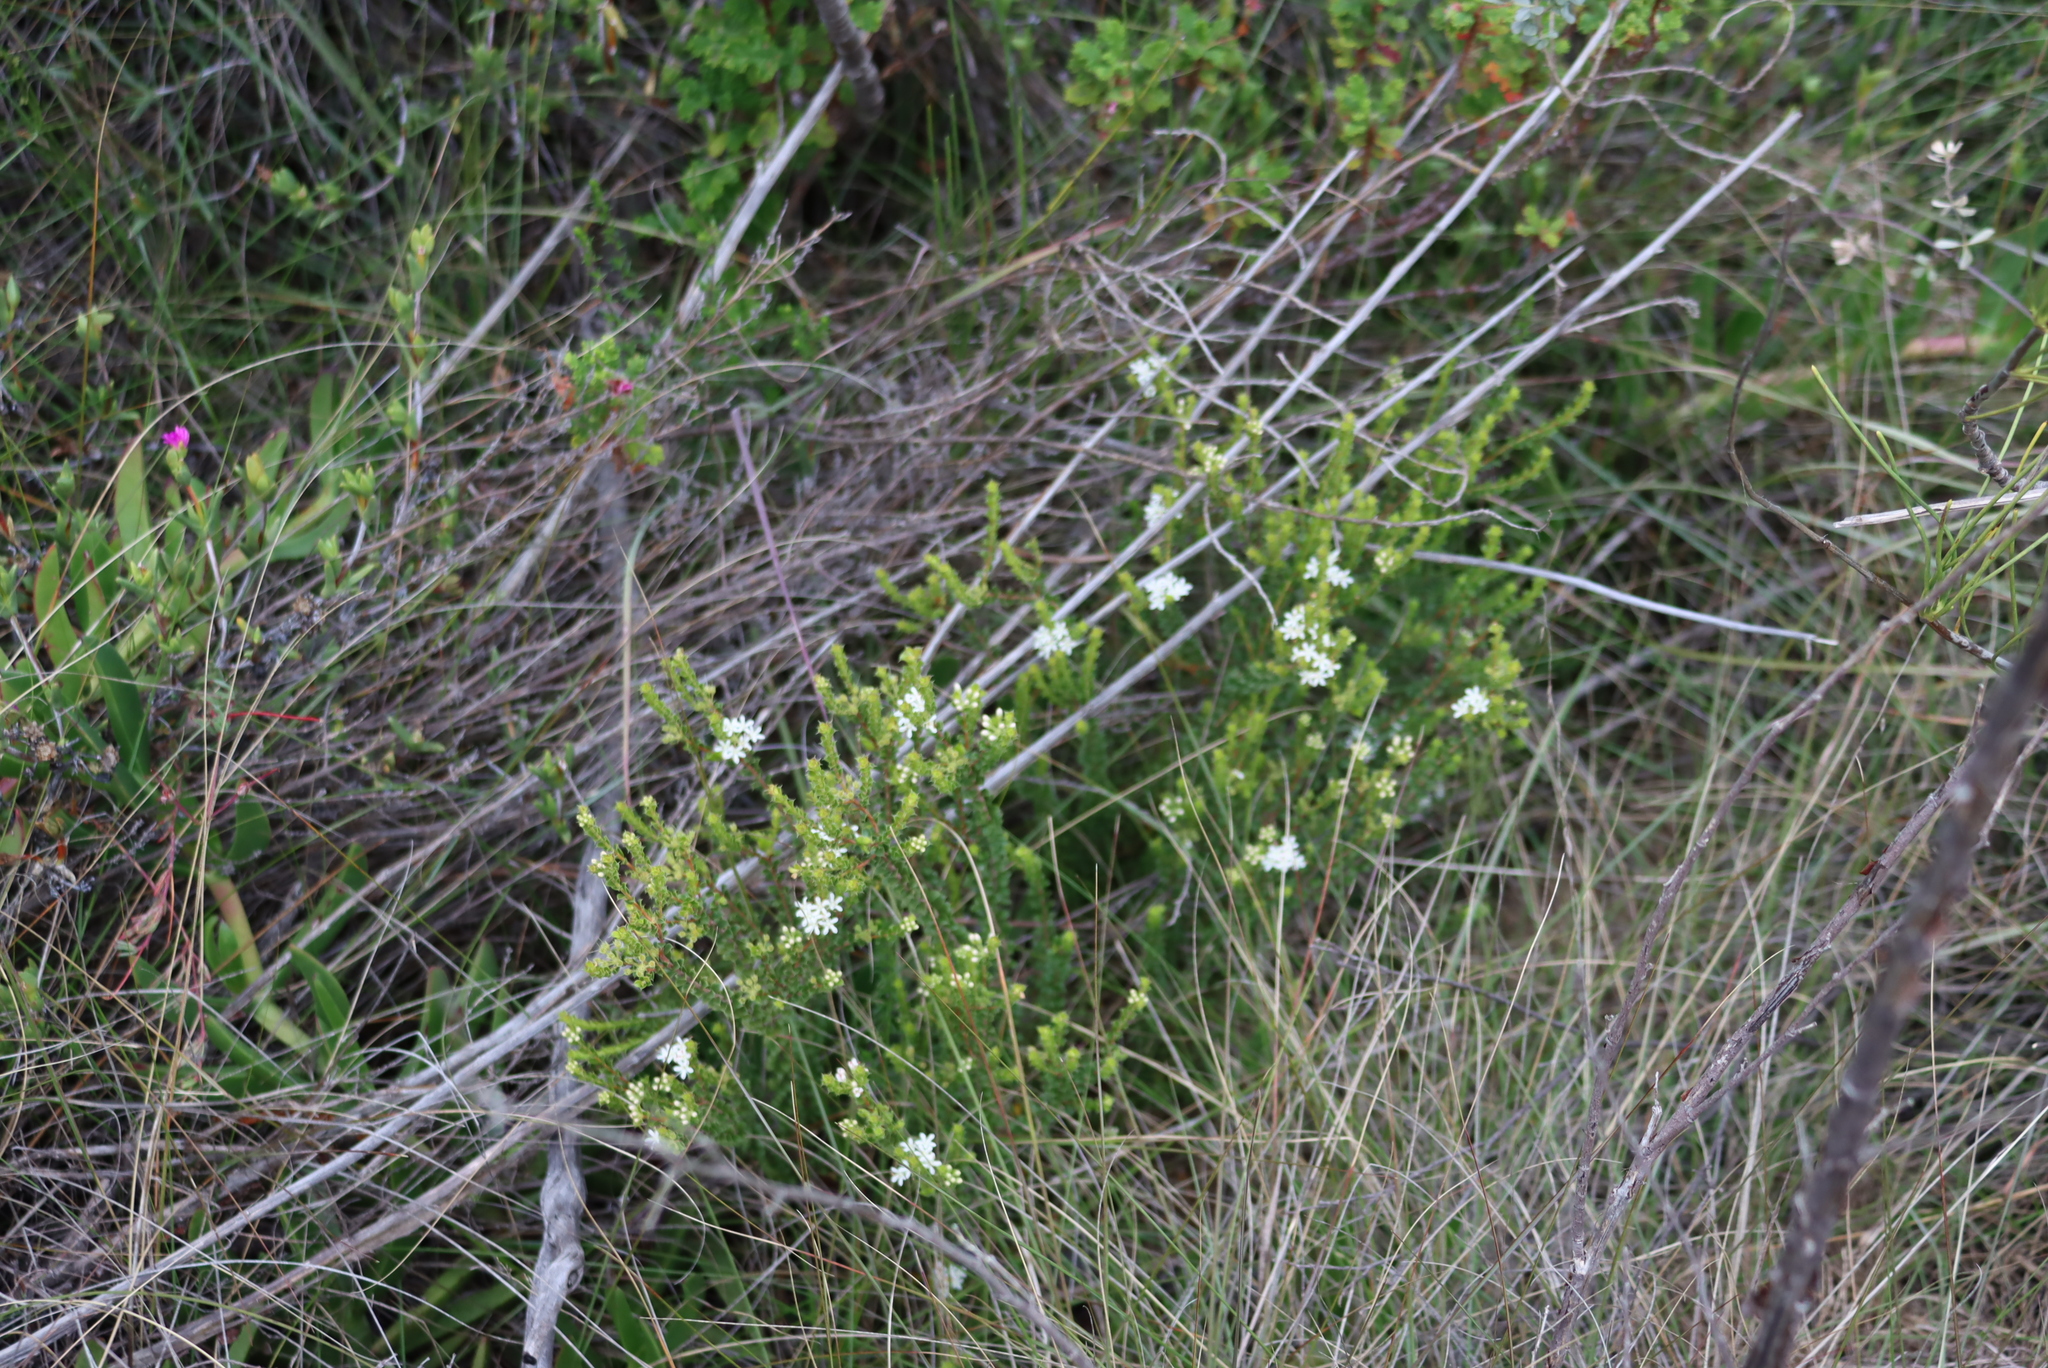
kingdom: Plantae
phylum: Tracheophyta
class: Magnoliopsida
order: Sapindales
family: Rutaceae
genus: Agathosma
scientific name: Agathosma recurvifolia
